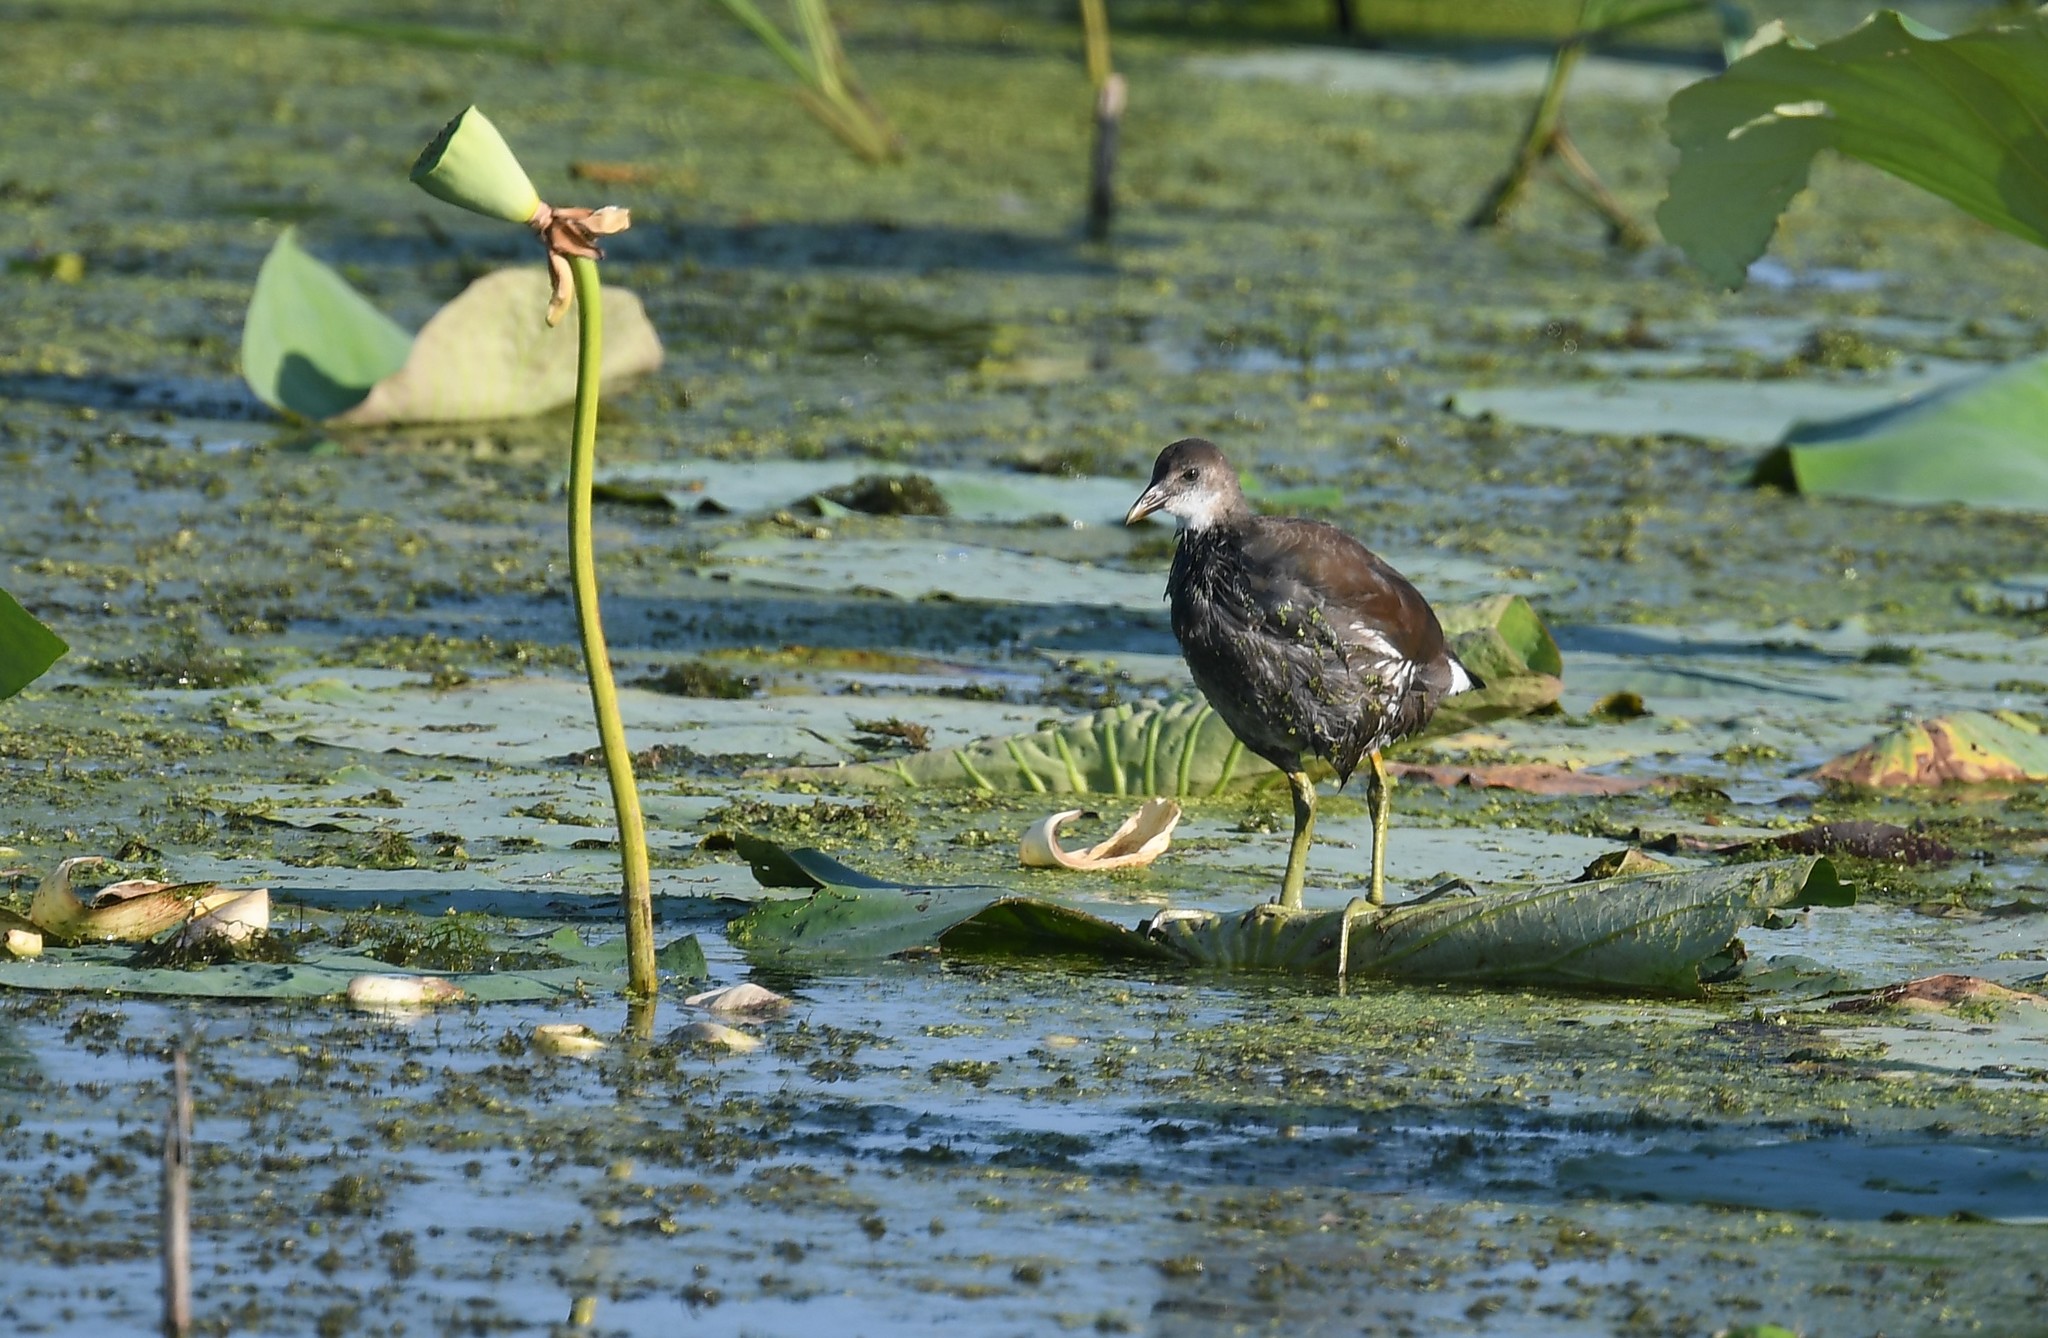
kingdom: Animalia
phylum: Chordata
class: Aves
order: Gruiformes
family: Rallidae
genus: Gallinula
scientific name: Gallinula chloropus
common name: Common moorhen
